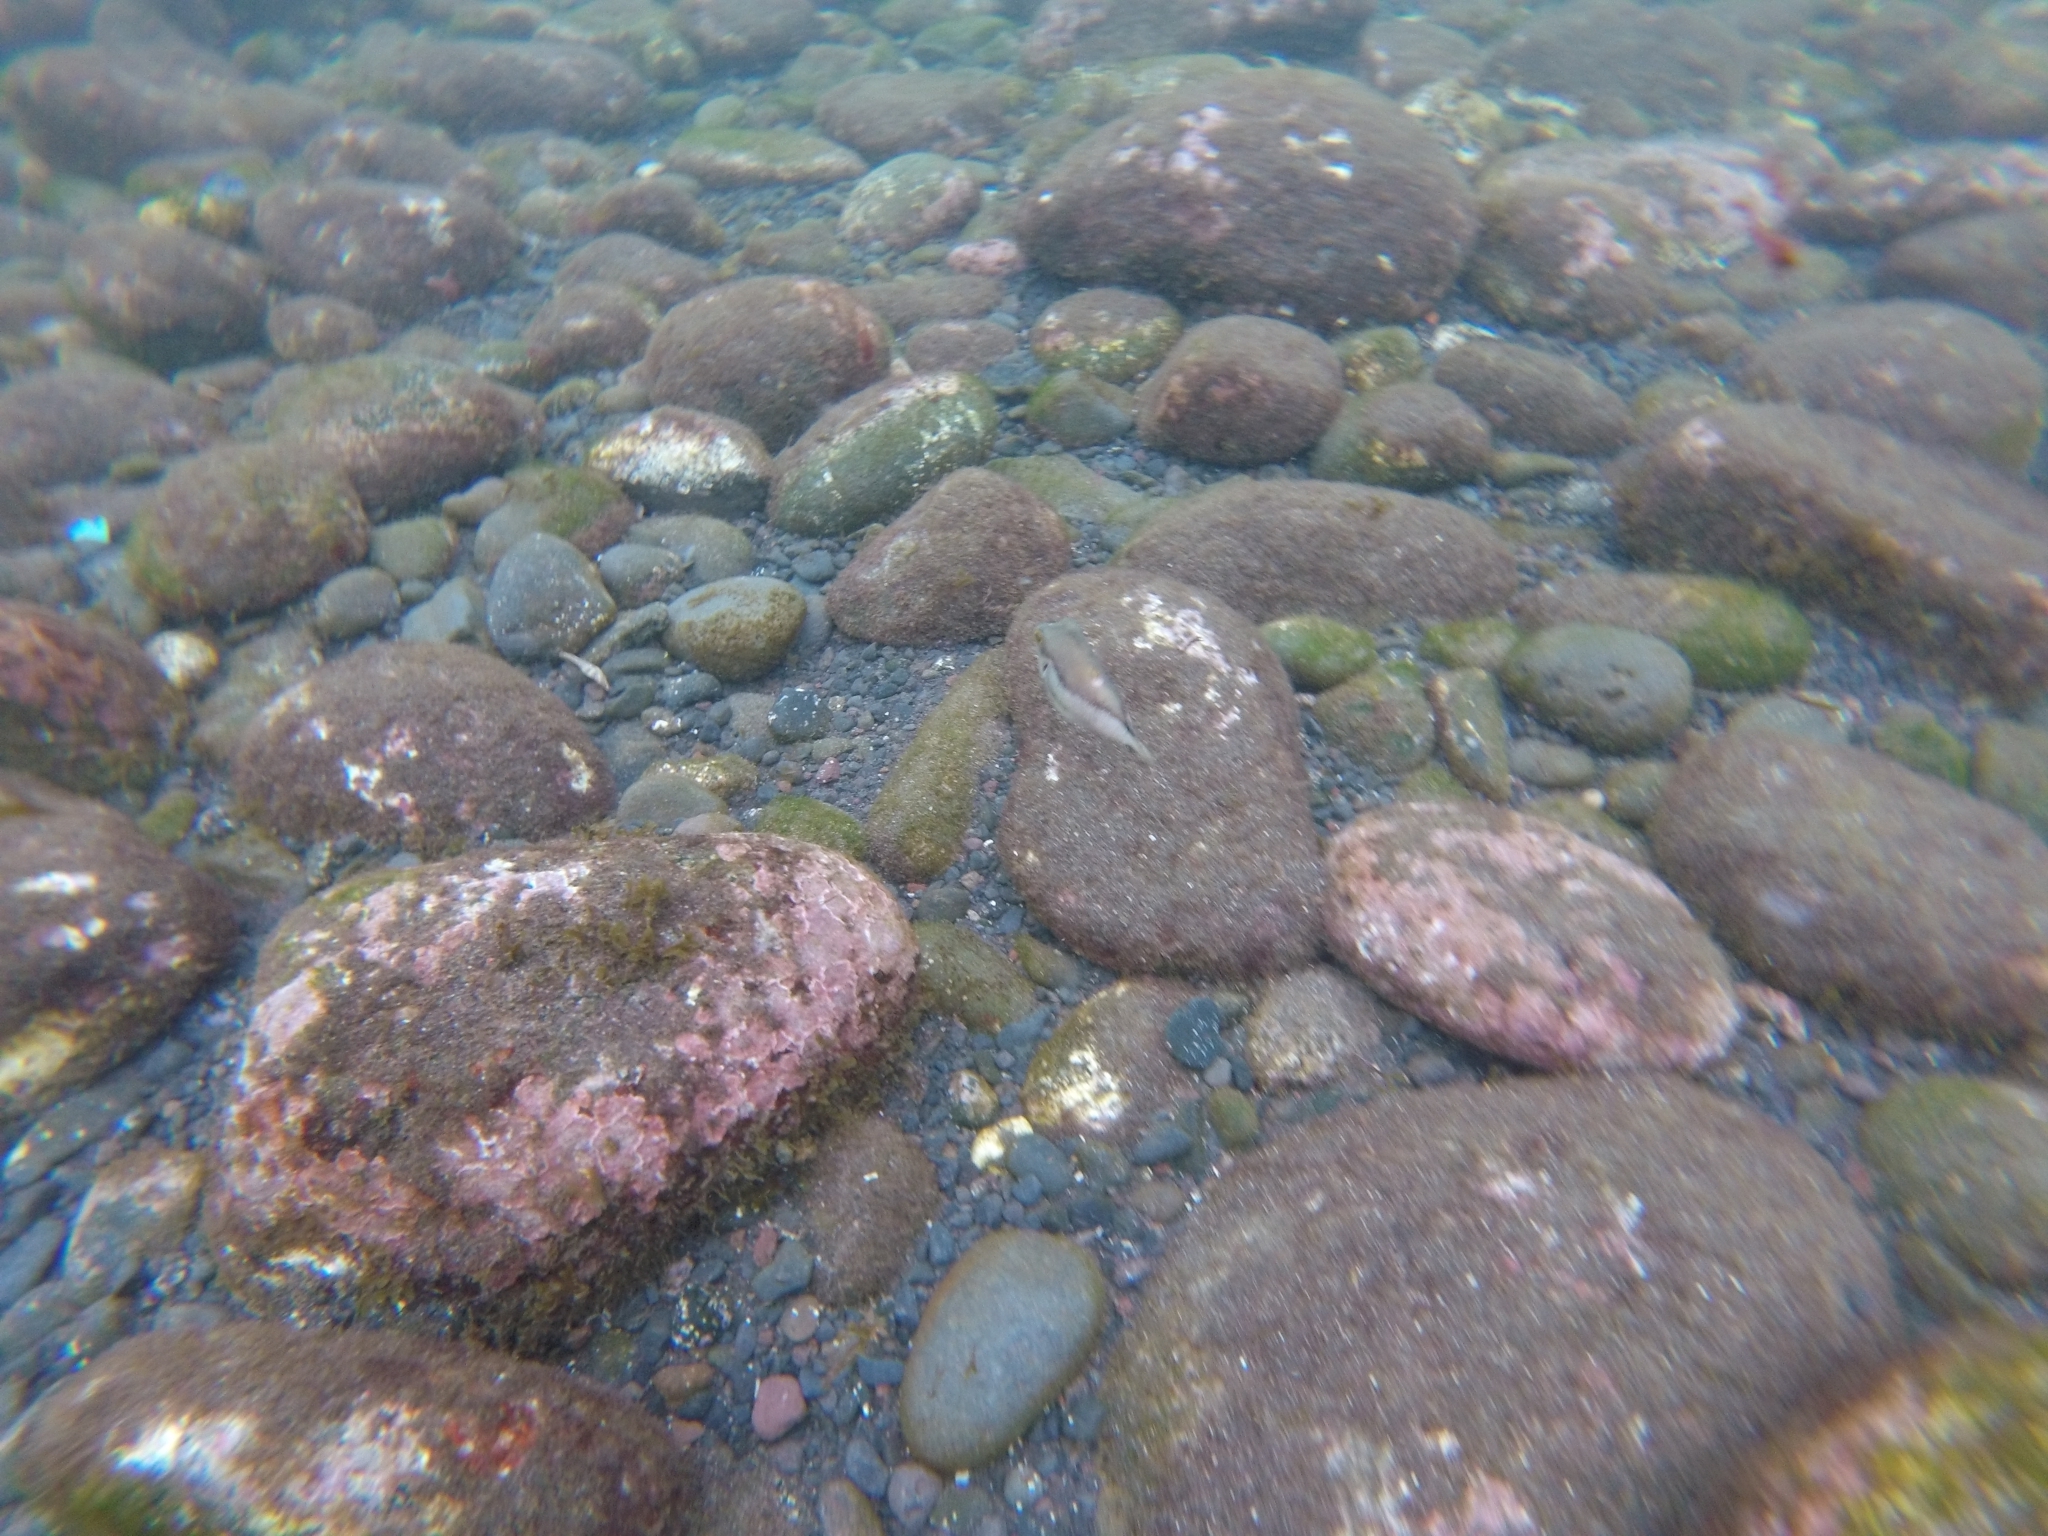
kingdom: Animalia
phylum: Chordata
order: Tetraodontiformes
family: Tetraodontidae
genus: Canthigaster
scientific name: Canthigaster capistrata
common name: Macaronesian sharpnose-puffer
